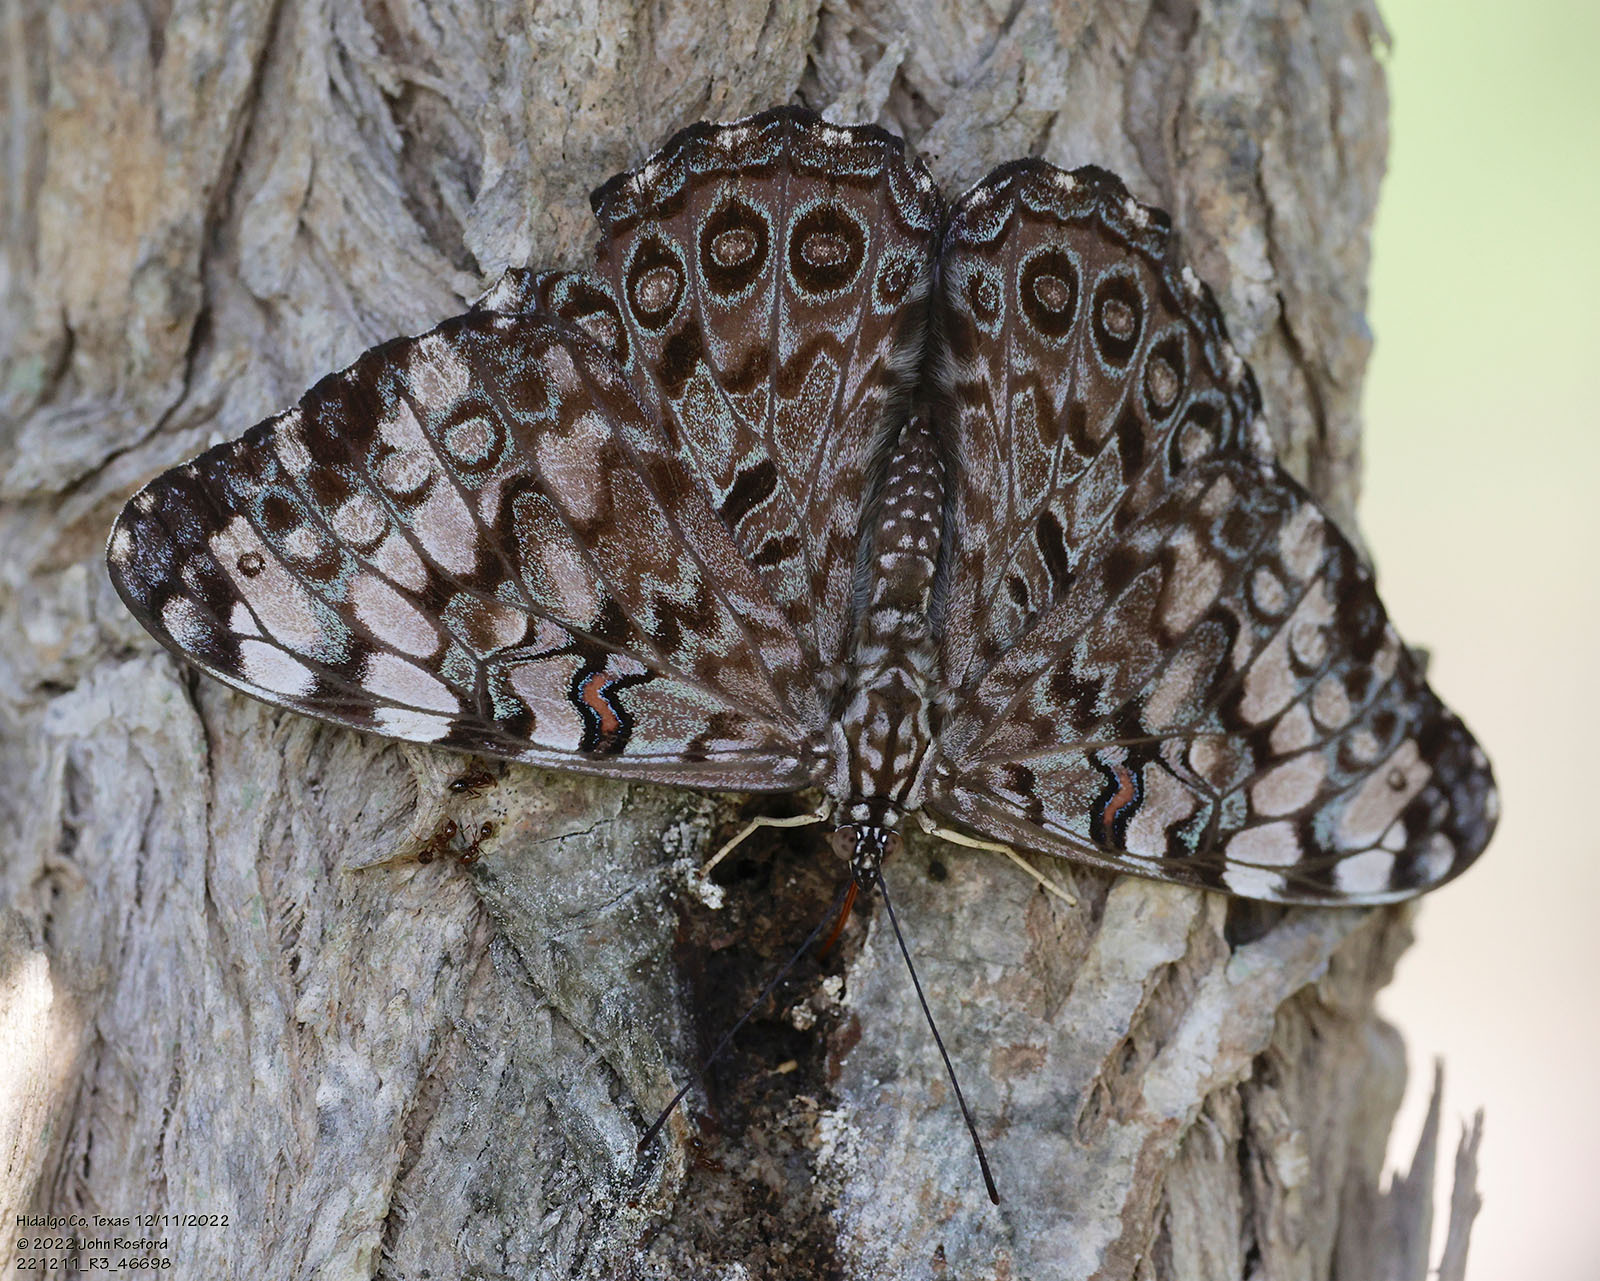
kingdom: Animalia
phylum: Arthropoda
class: Insecta
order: Lepidoptera
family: Nymphalidae
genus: Hamadryas
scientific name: Hamadryas guatemalena
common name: Guatemalan cracker
